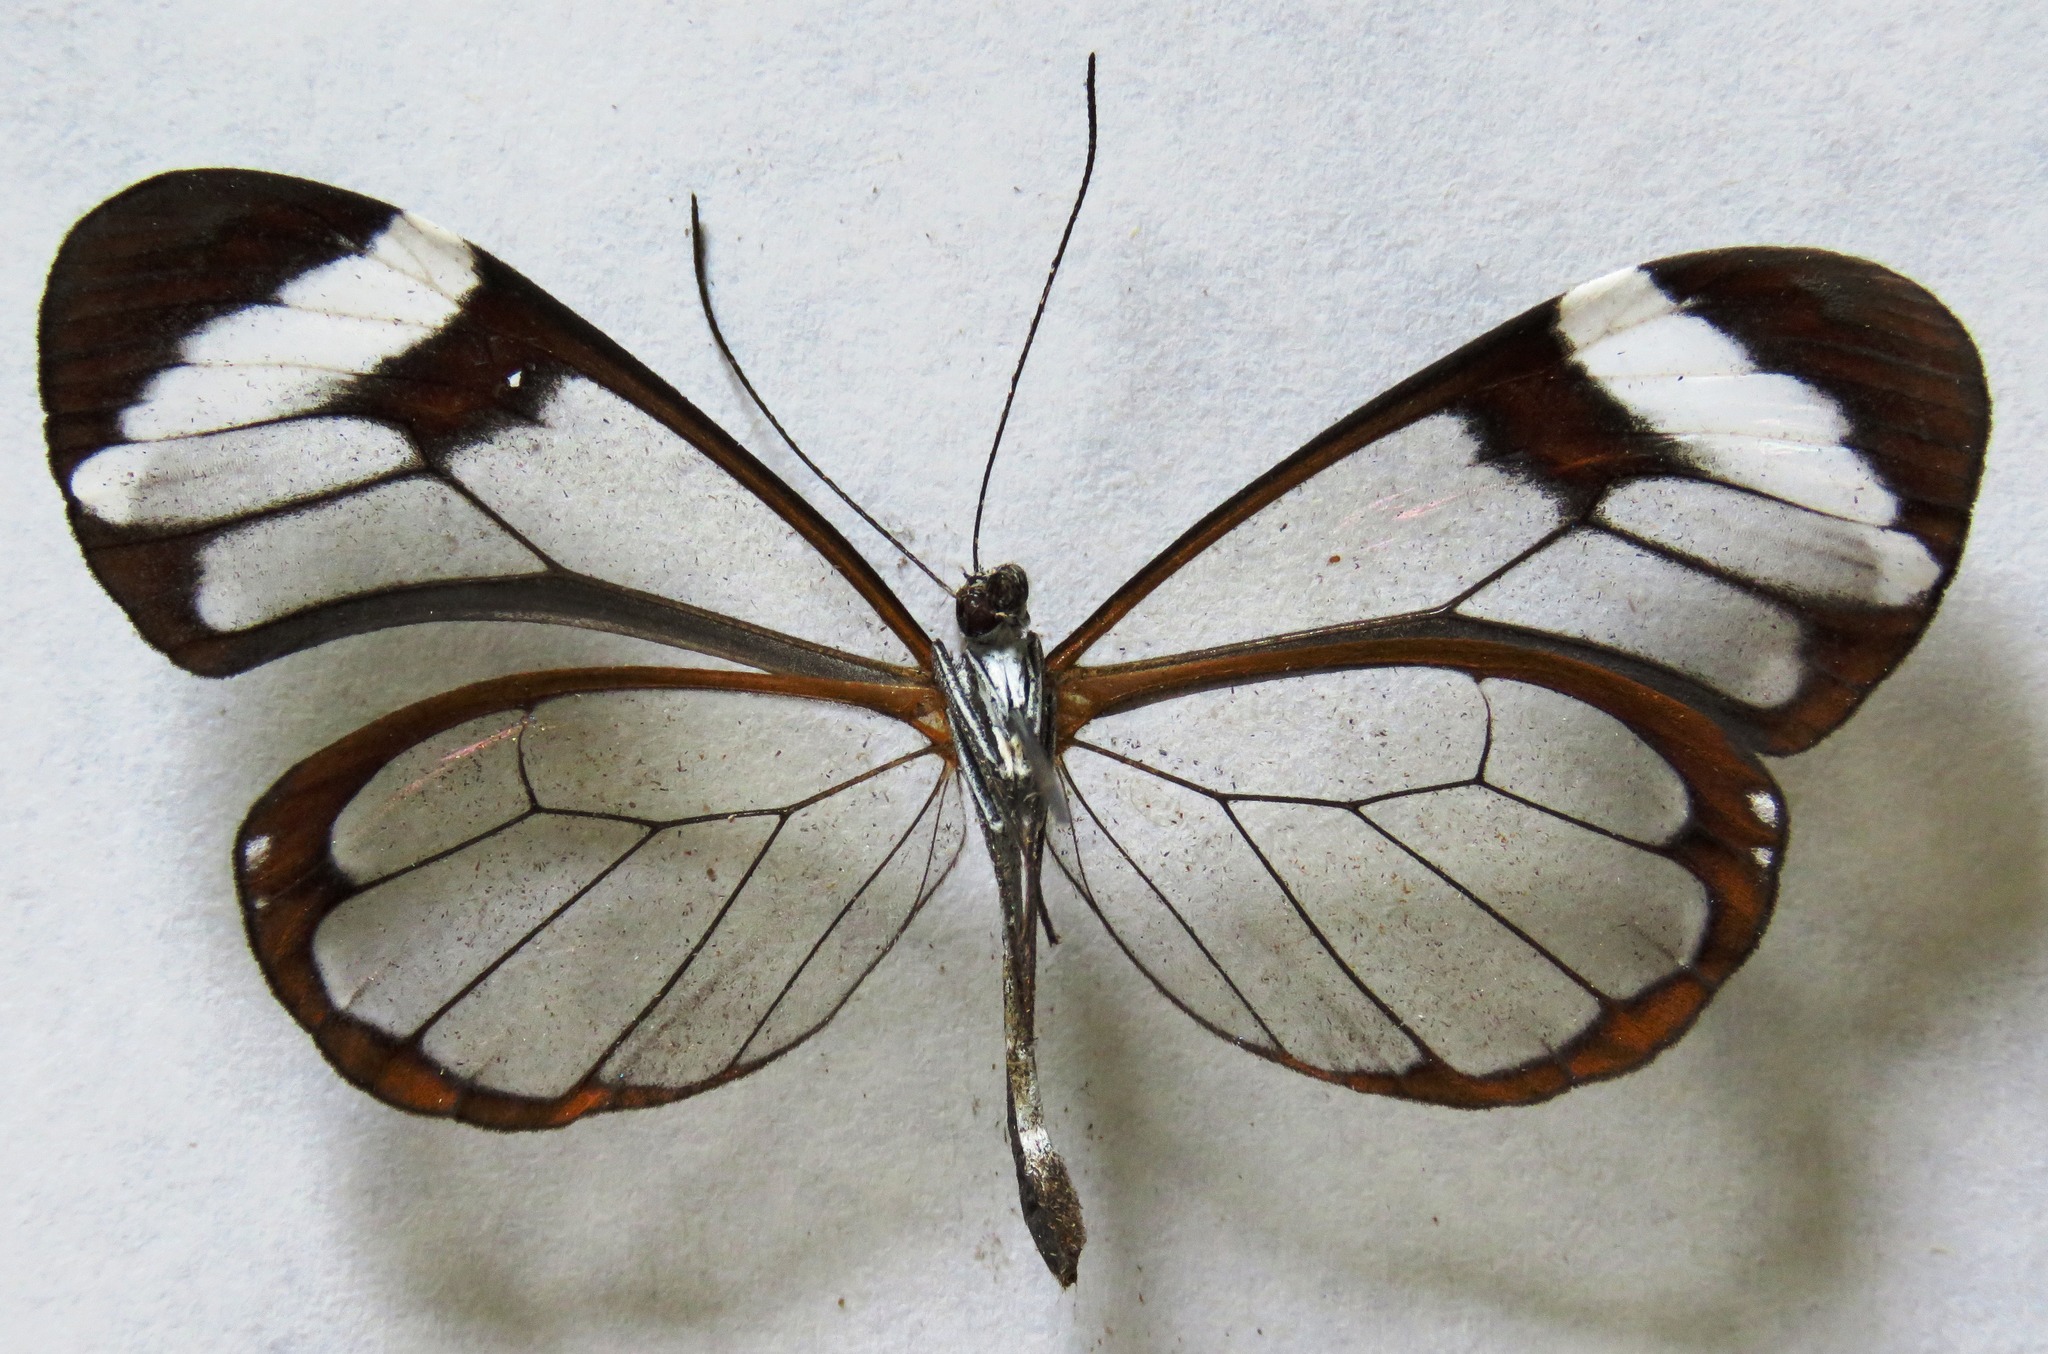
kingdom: Animalia
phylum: Arthropoda
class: Insecta
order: Lepidoptera
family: Nymphalidae
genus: Greta
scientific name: Greta morgane
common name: Thick-tipped greta
